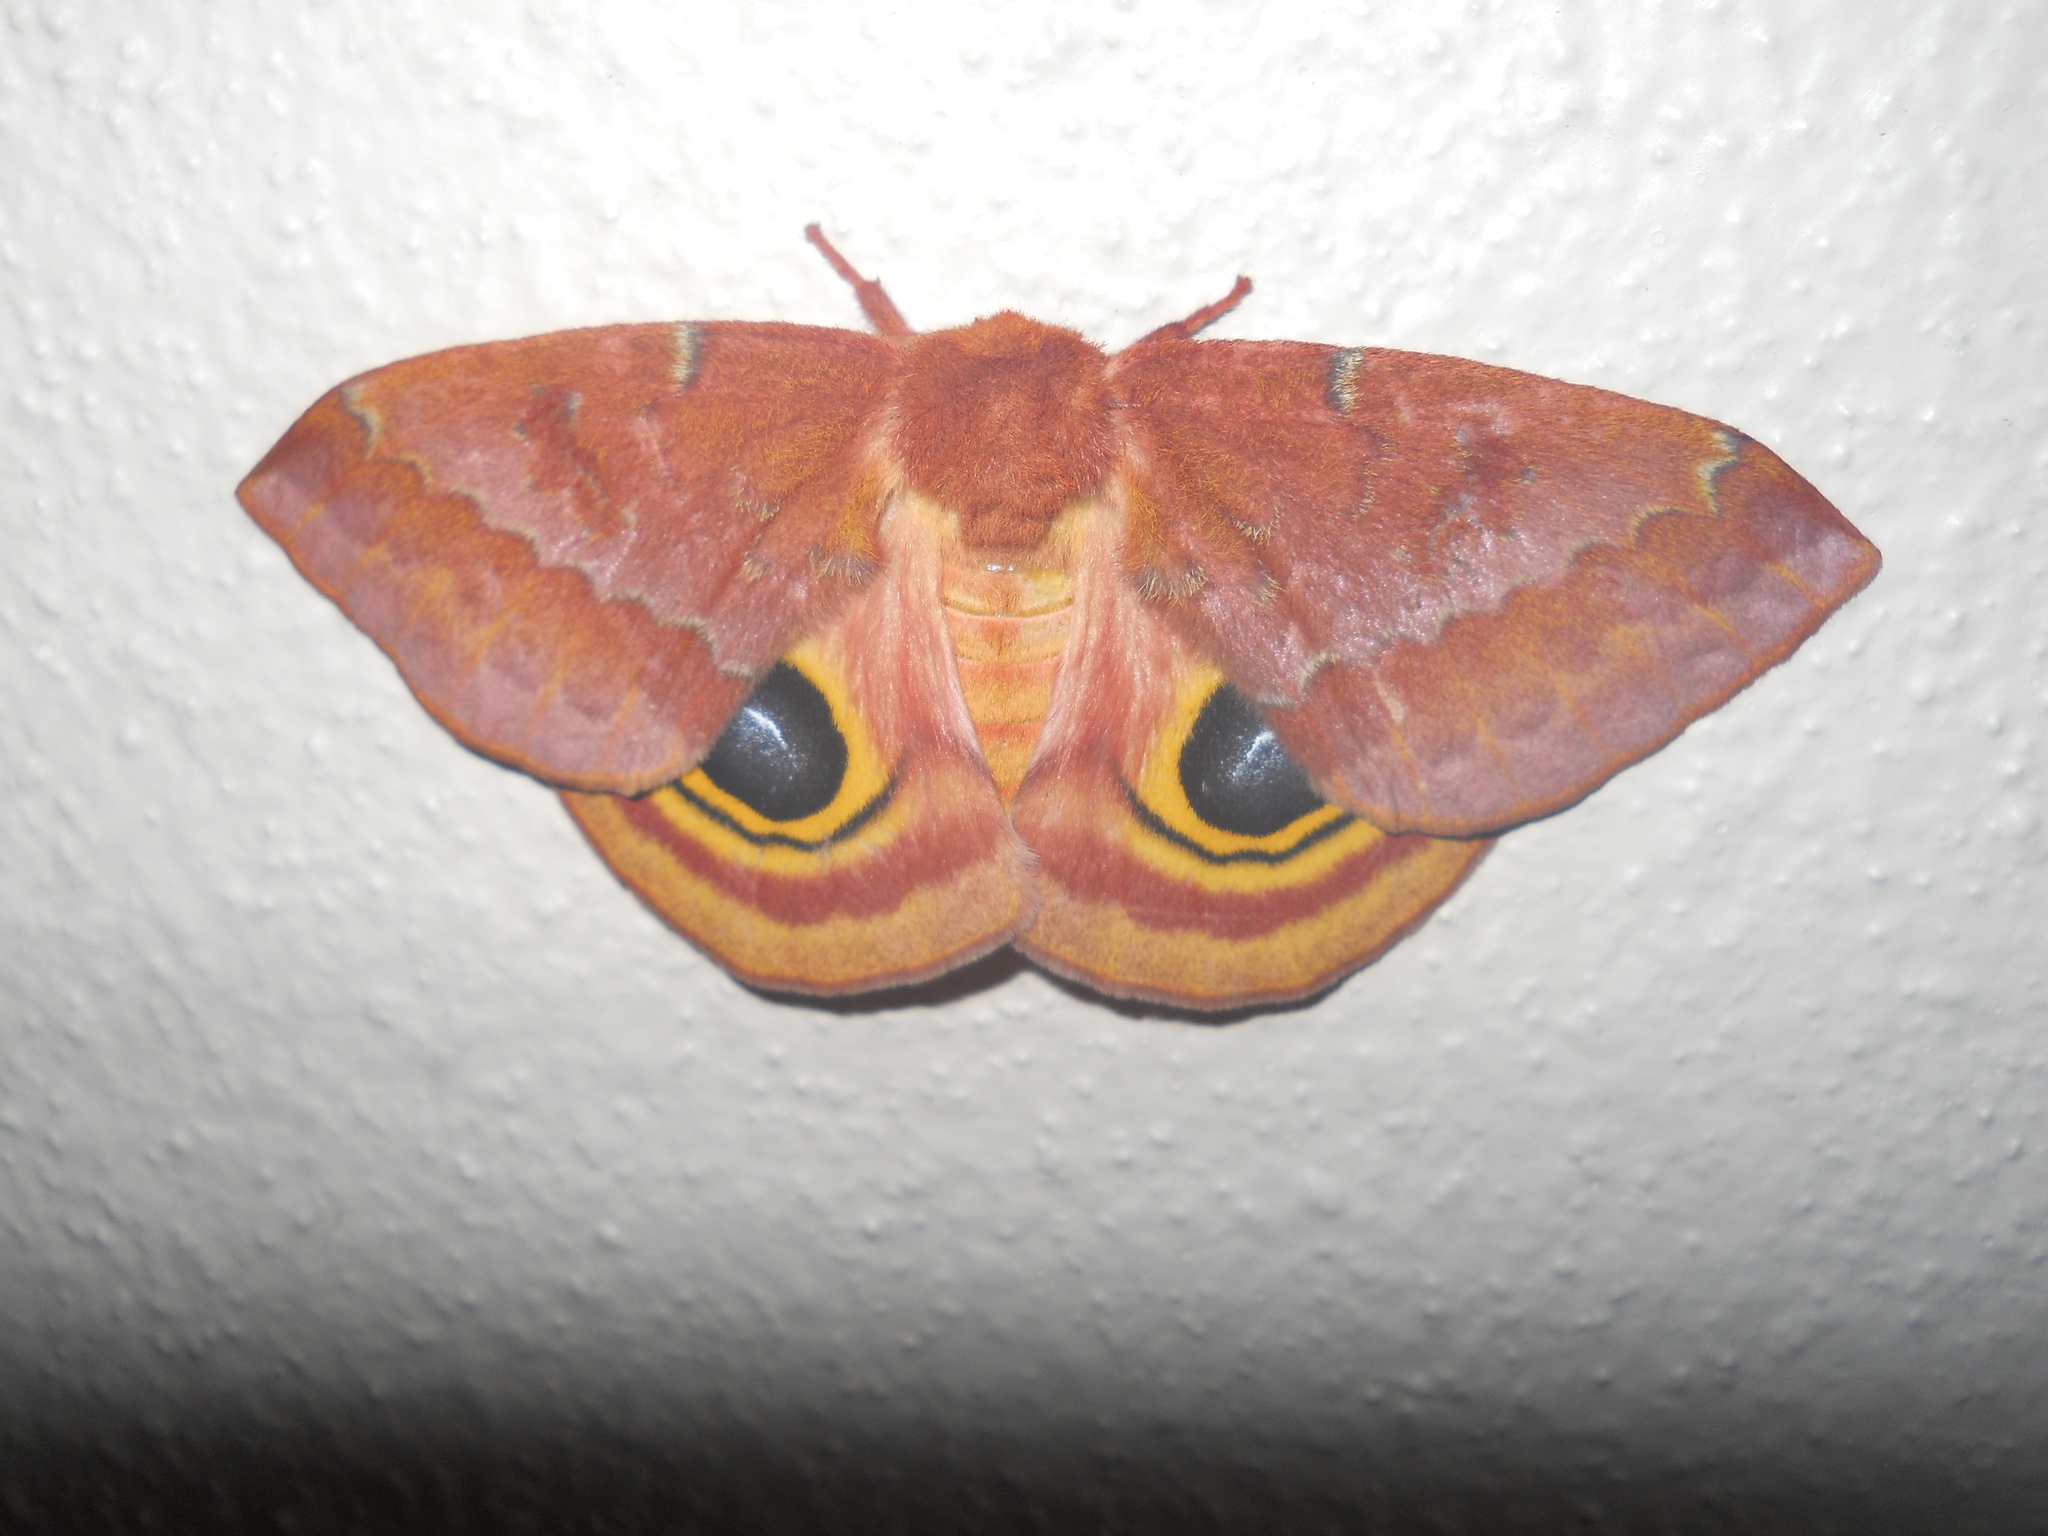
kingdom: Animalia
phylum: Arthropoda
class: Insecta
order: Lepidoptera
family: Saturniidae
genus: Automeris
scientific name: Automeris io
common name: Io moth
